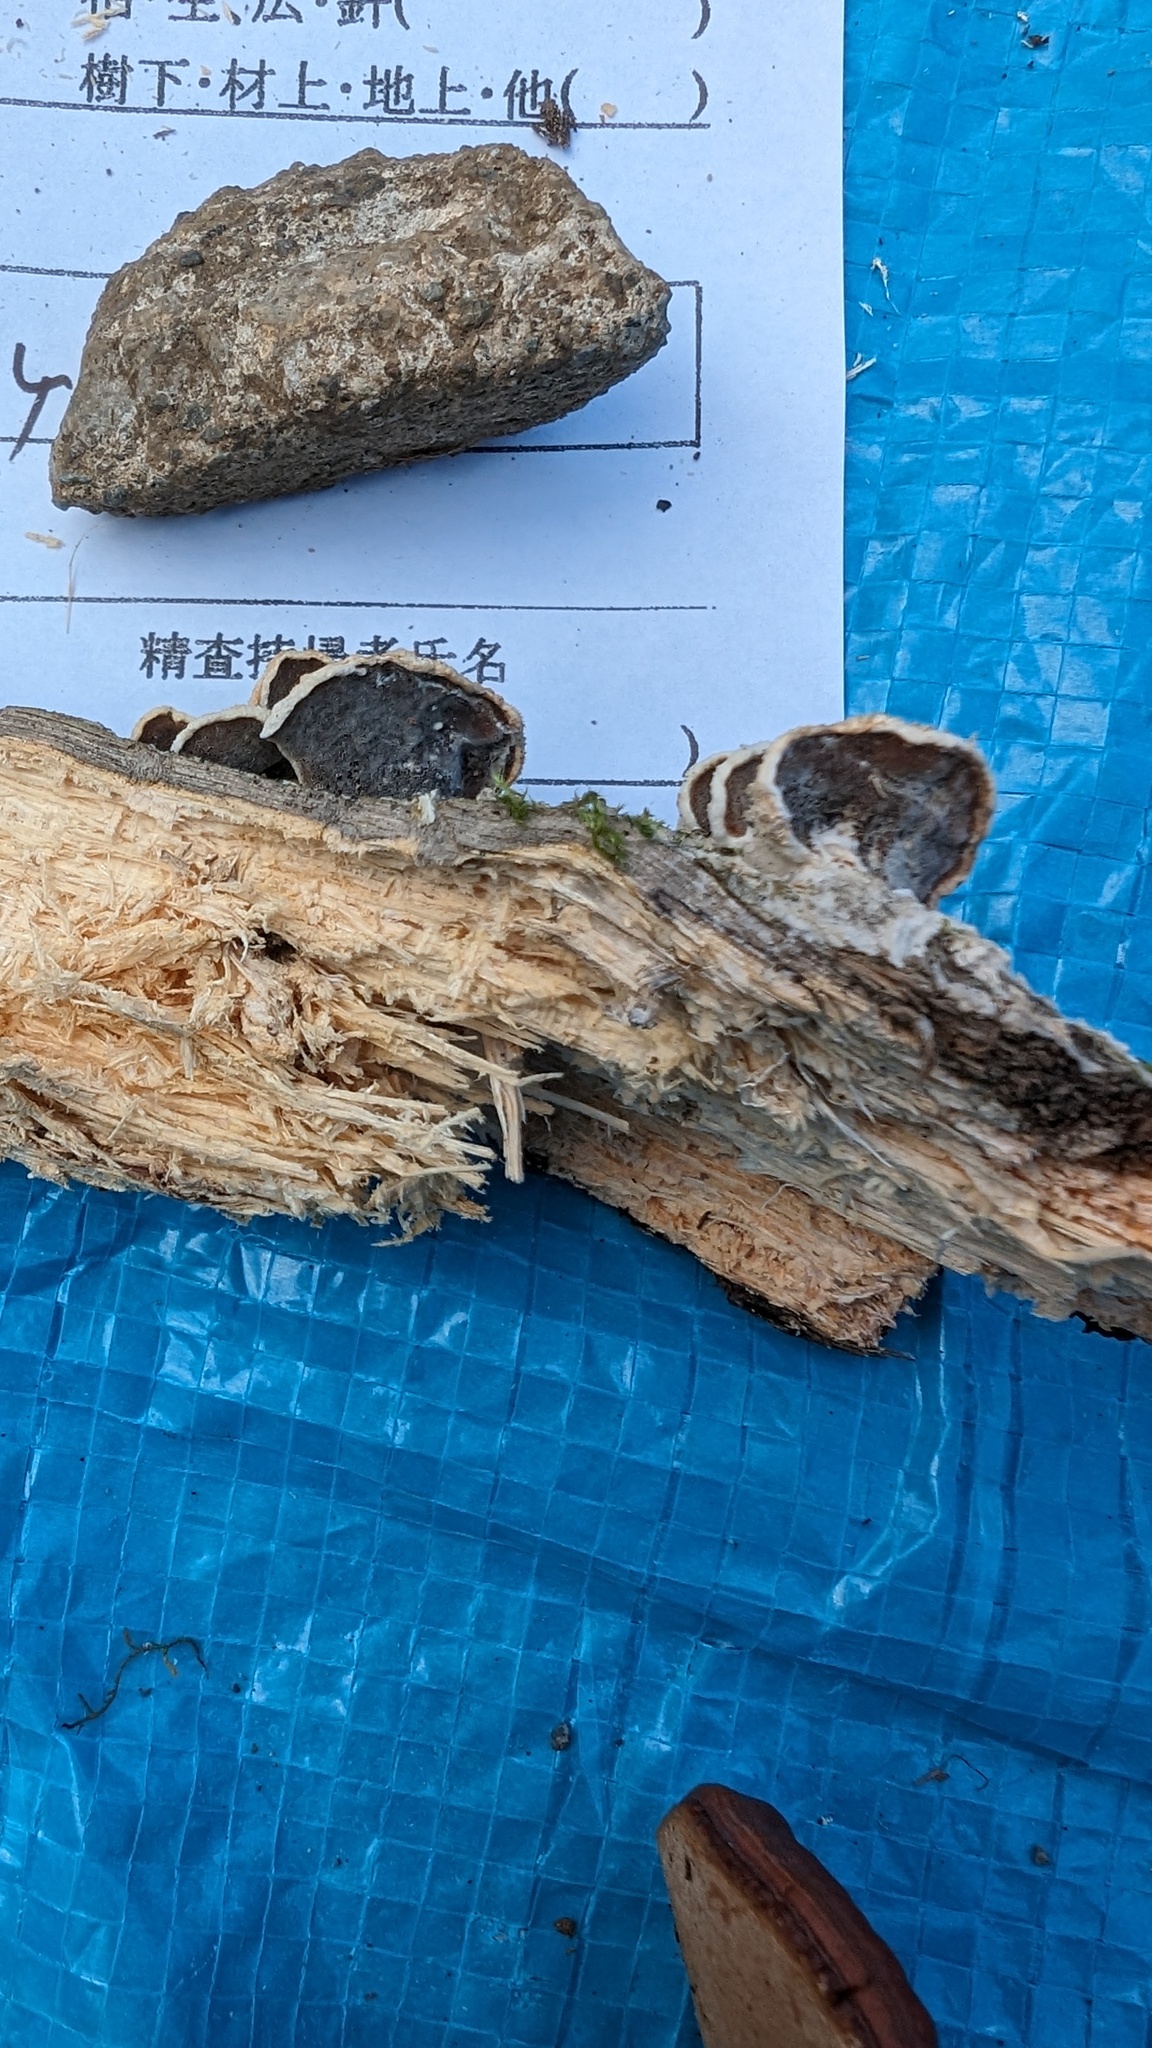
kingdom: Fungi
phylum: Basidiomycota
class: Agaricomycetes
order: Polyporales
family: Irpicaceae
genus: Vitreoporus
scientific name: Vitreoporus dichrous
